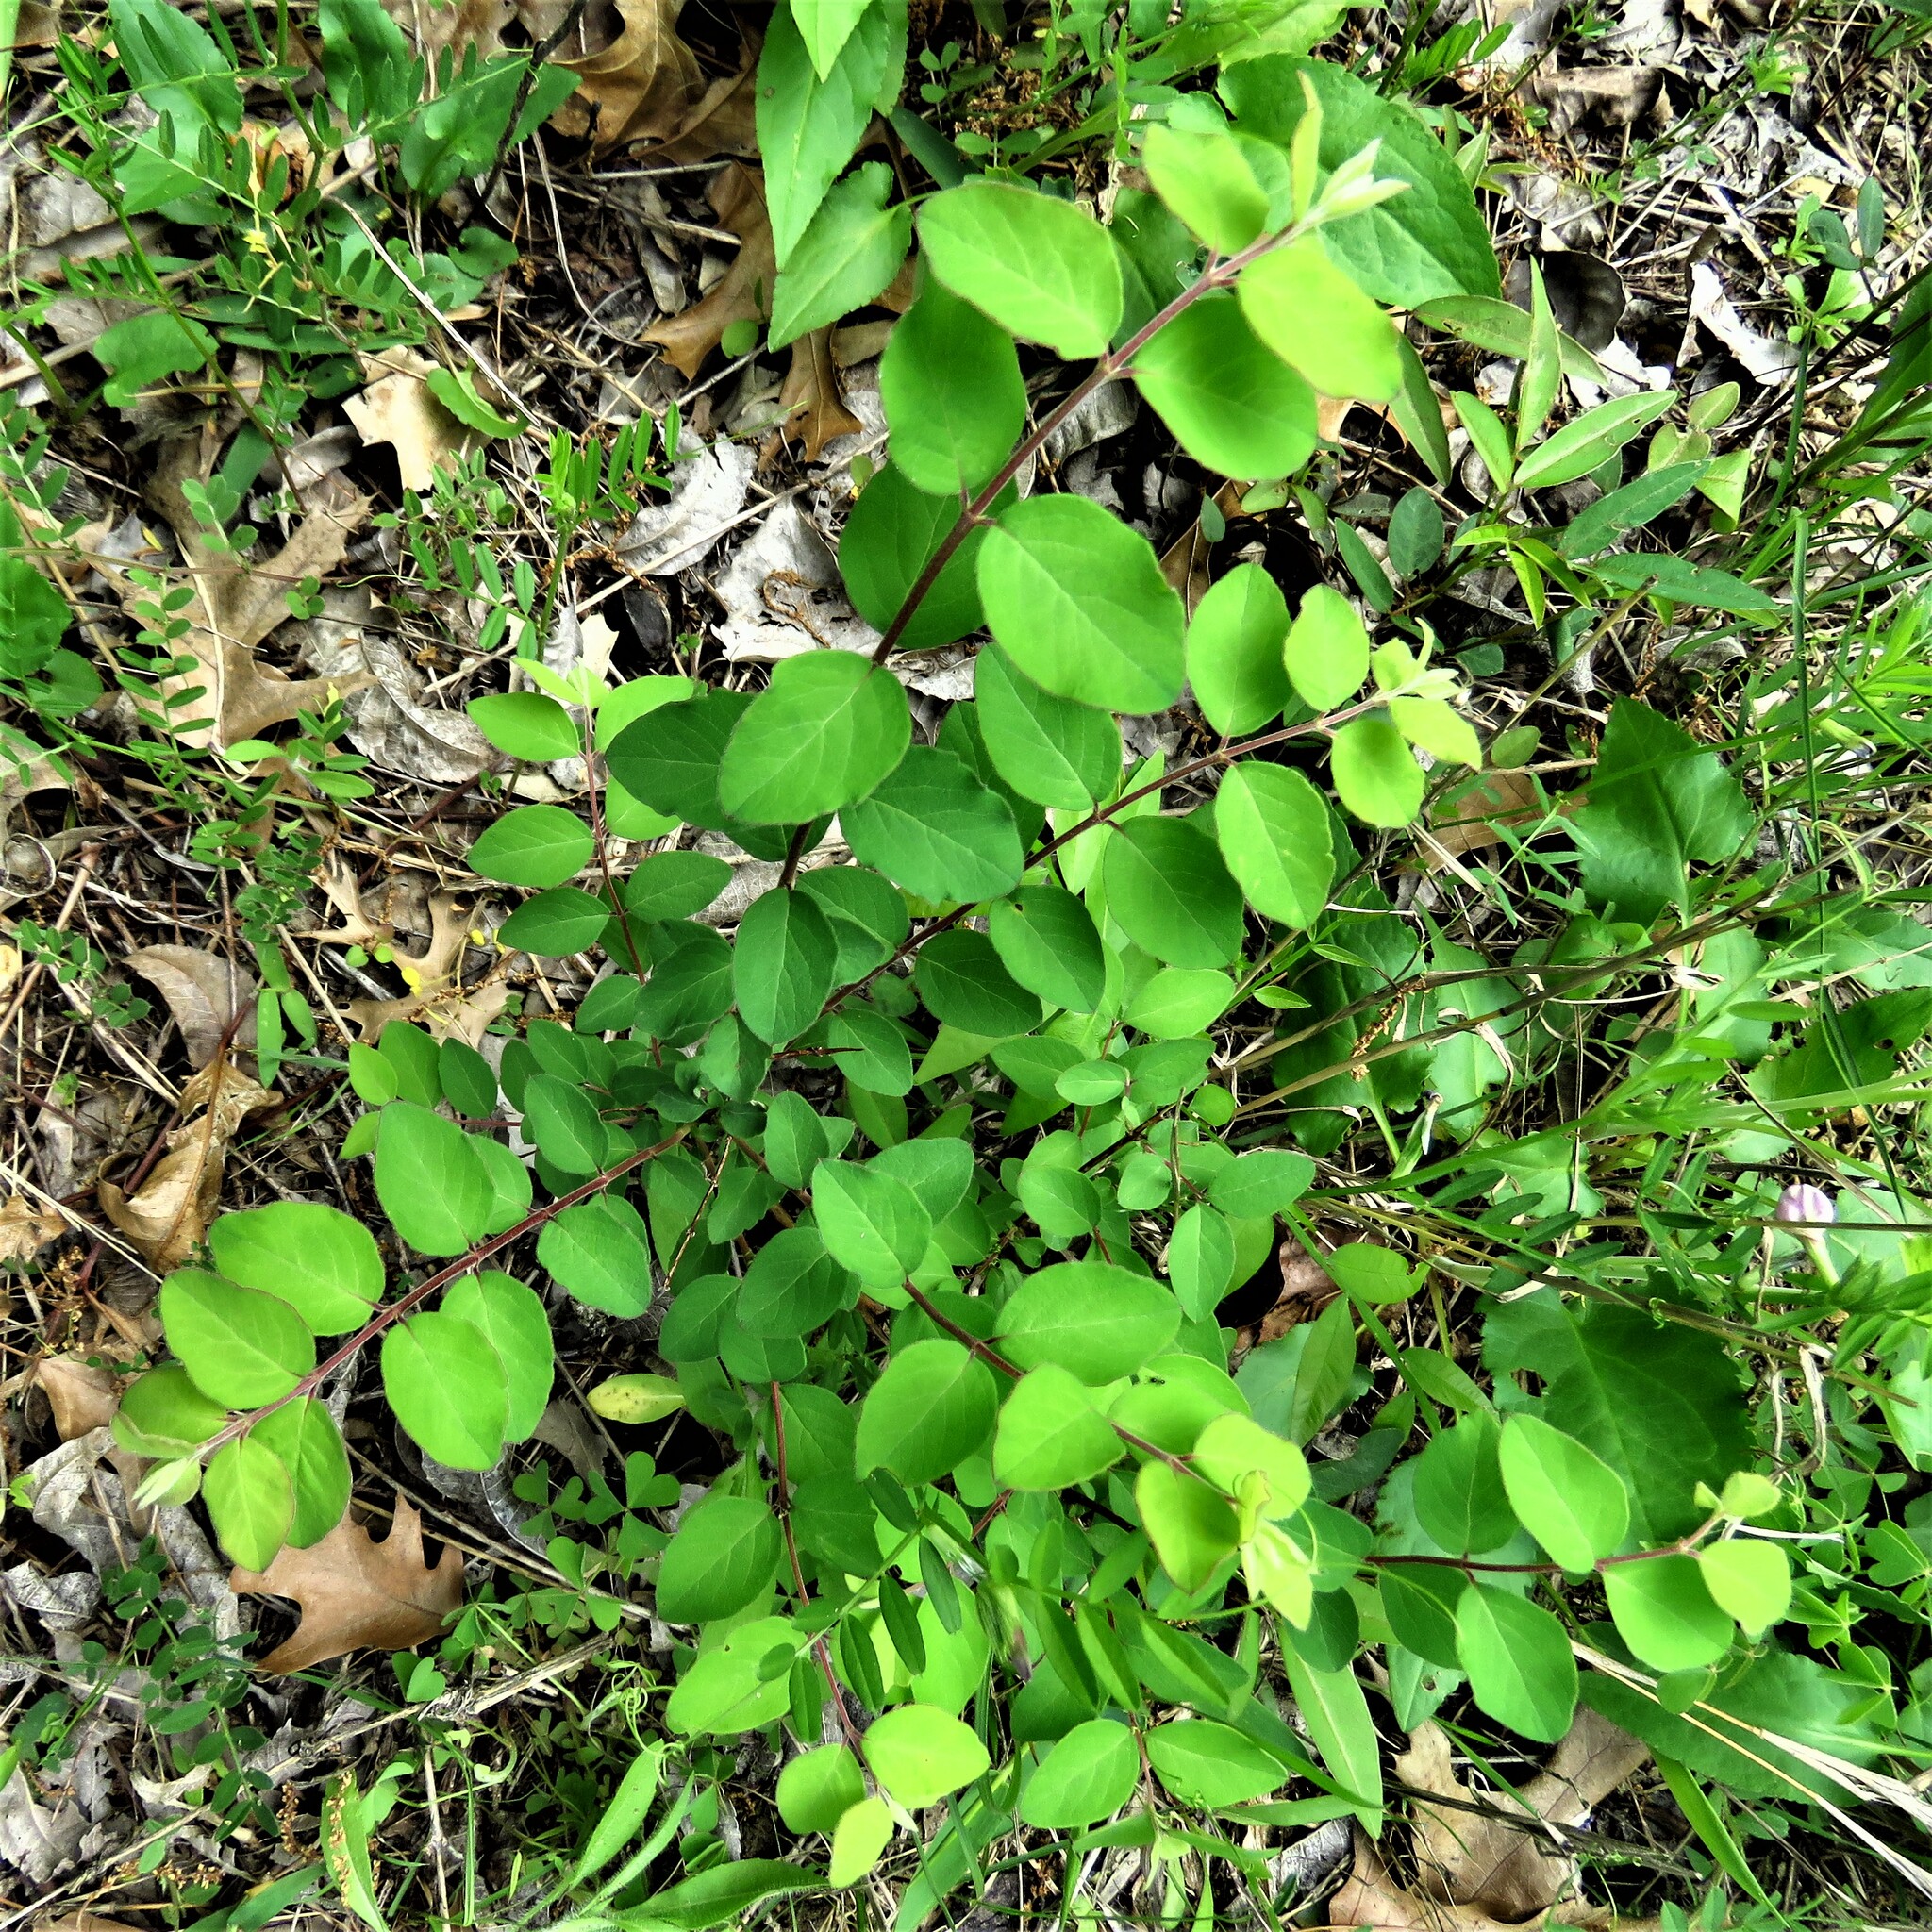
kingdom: Plantae
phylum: Tracheophyta
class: Magnoliopsida
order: Dipsacales
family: Caprifoliaceae
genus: Symphoricarpos
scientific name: Symphoricarpos orbiculatus
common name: Coralberry
